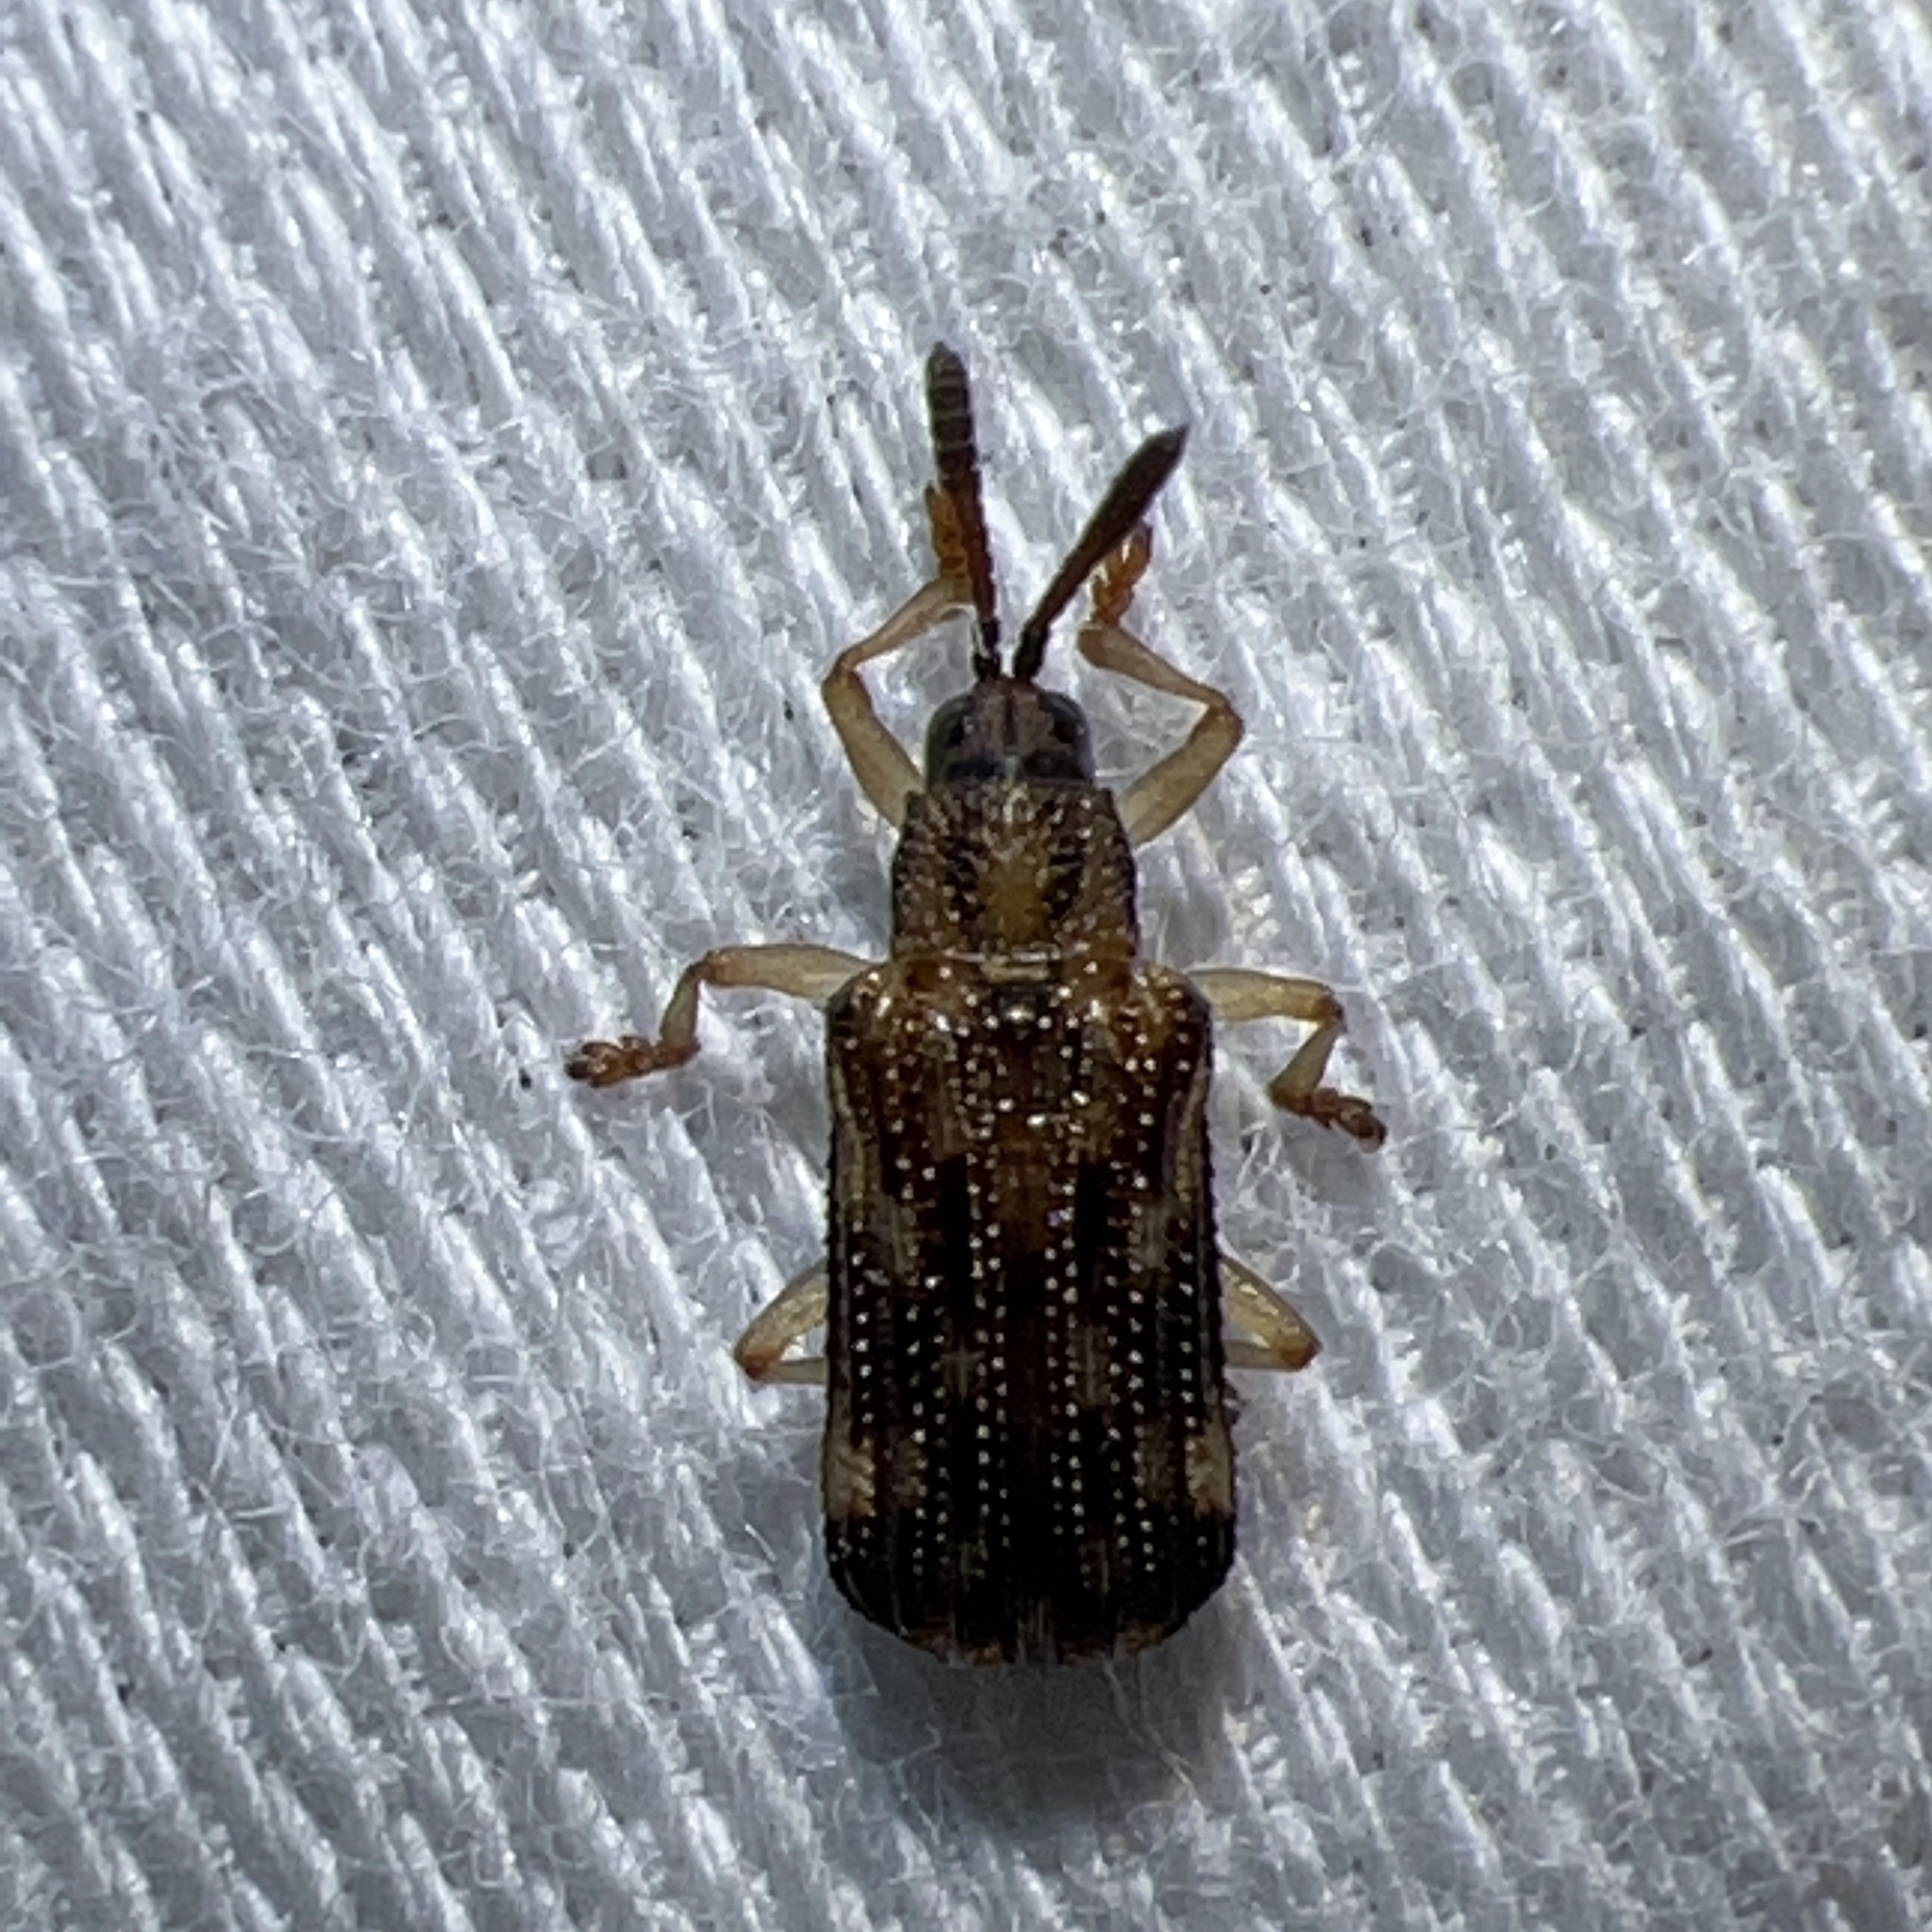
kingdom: Animalia
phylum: Arthropoda
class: Insecta
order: Coleoptera
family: Chrysomelidae
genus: Sumitrosis
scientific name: Sumitrosis inaequalis
